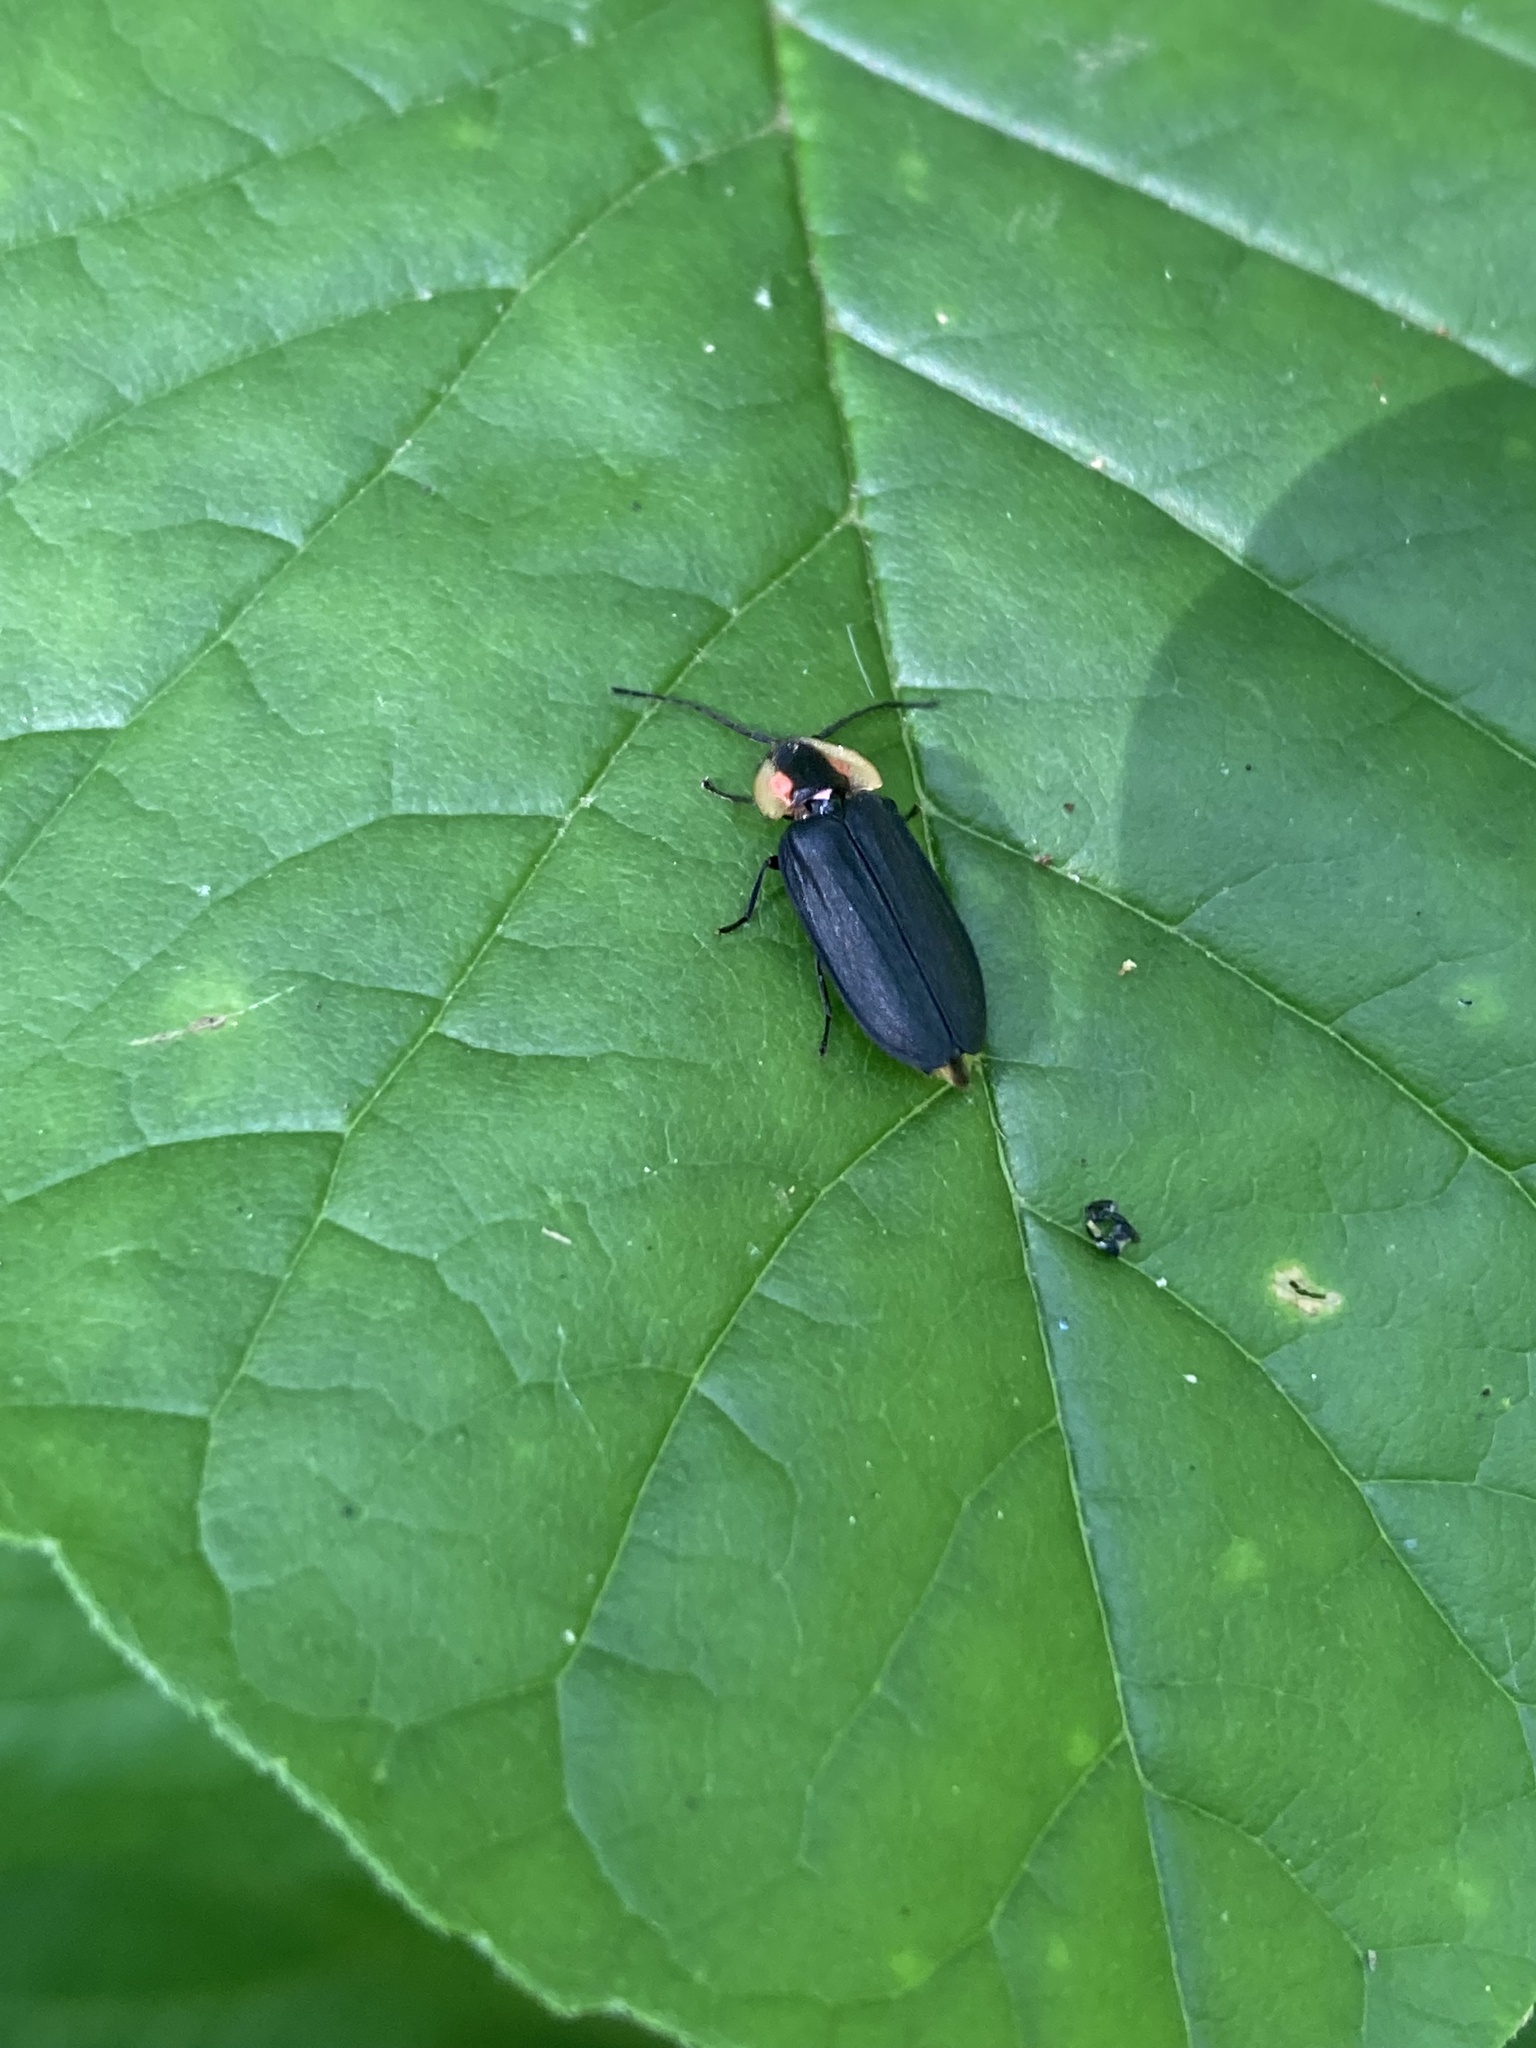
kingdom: Animalia
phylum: Arthropoda
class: Insecta
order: Coleoptera
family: Lampyridae
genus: Lucidota
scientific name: Lucidota atra
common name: Black firefly
